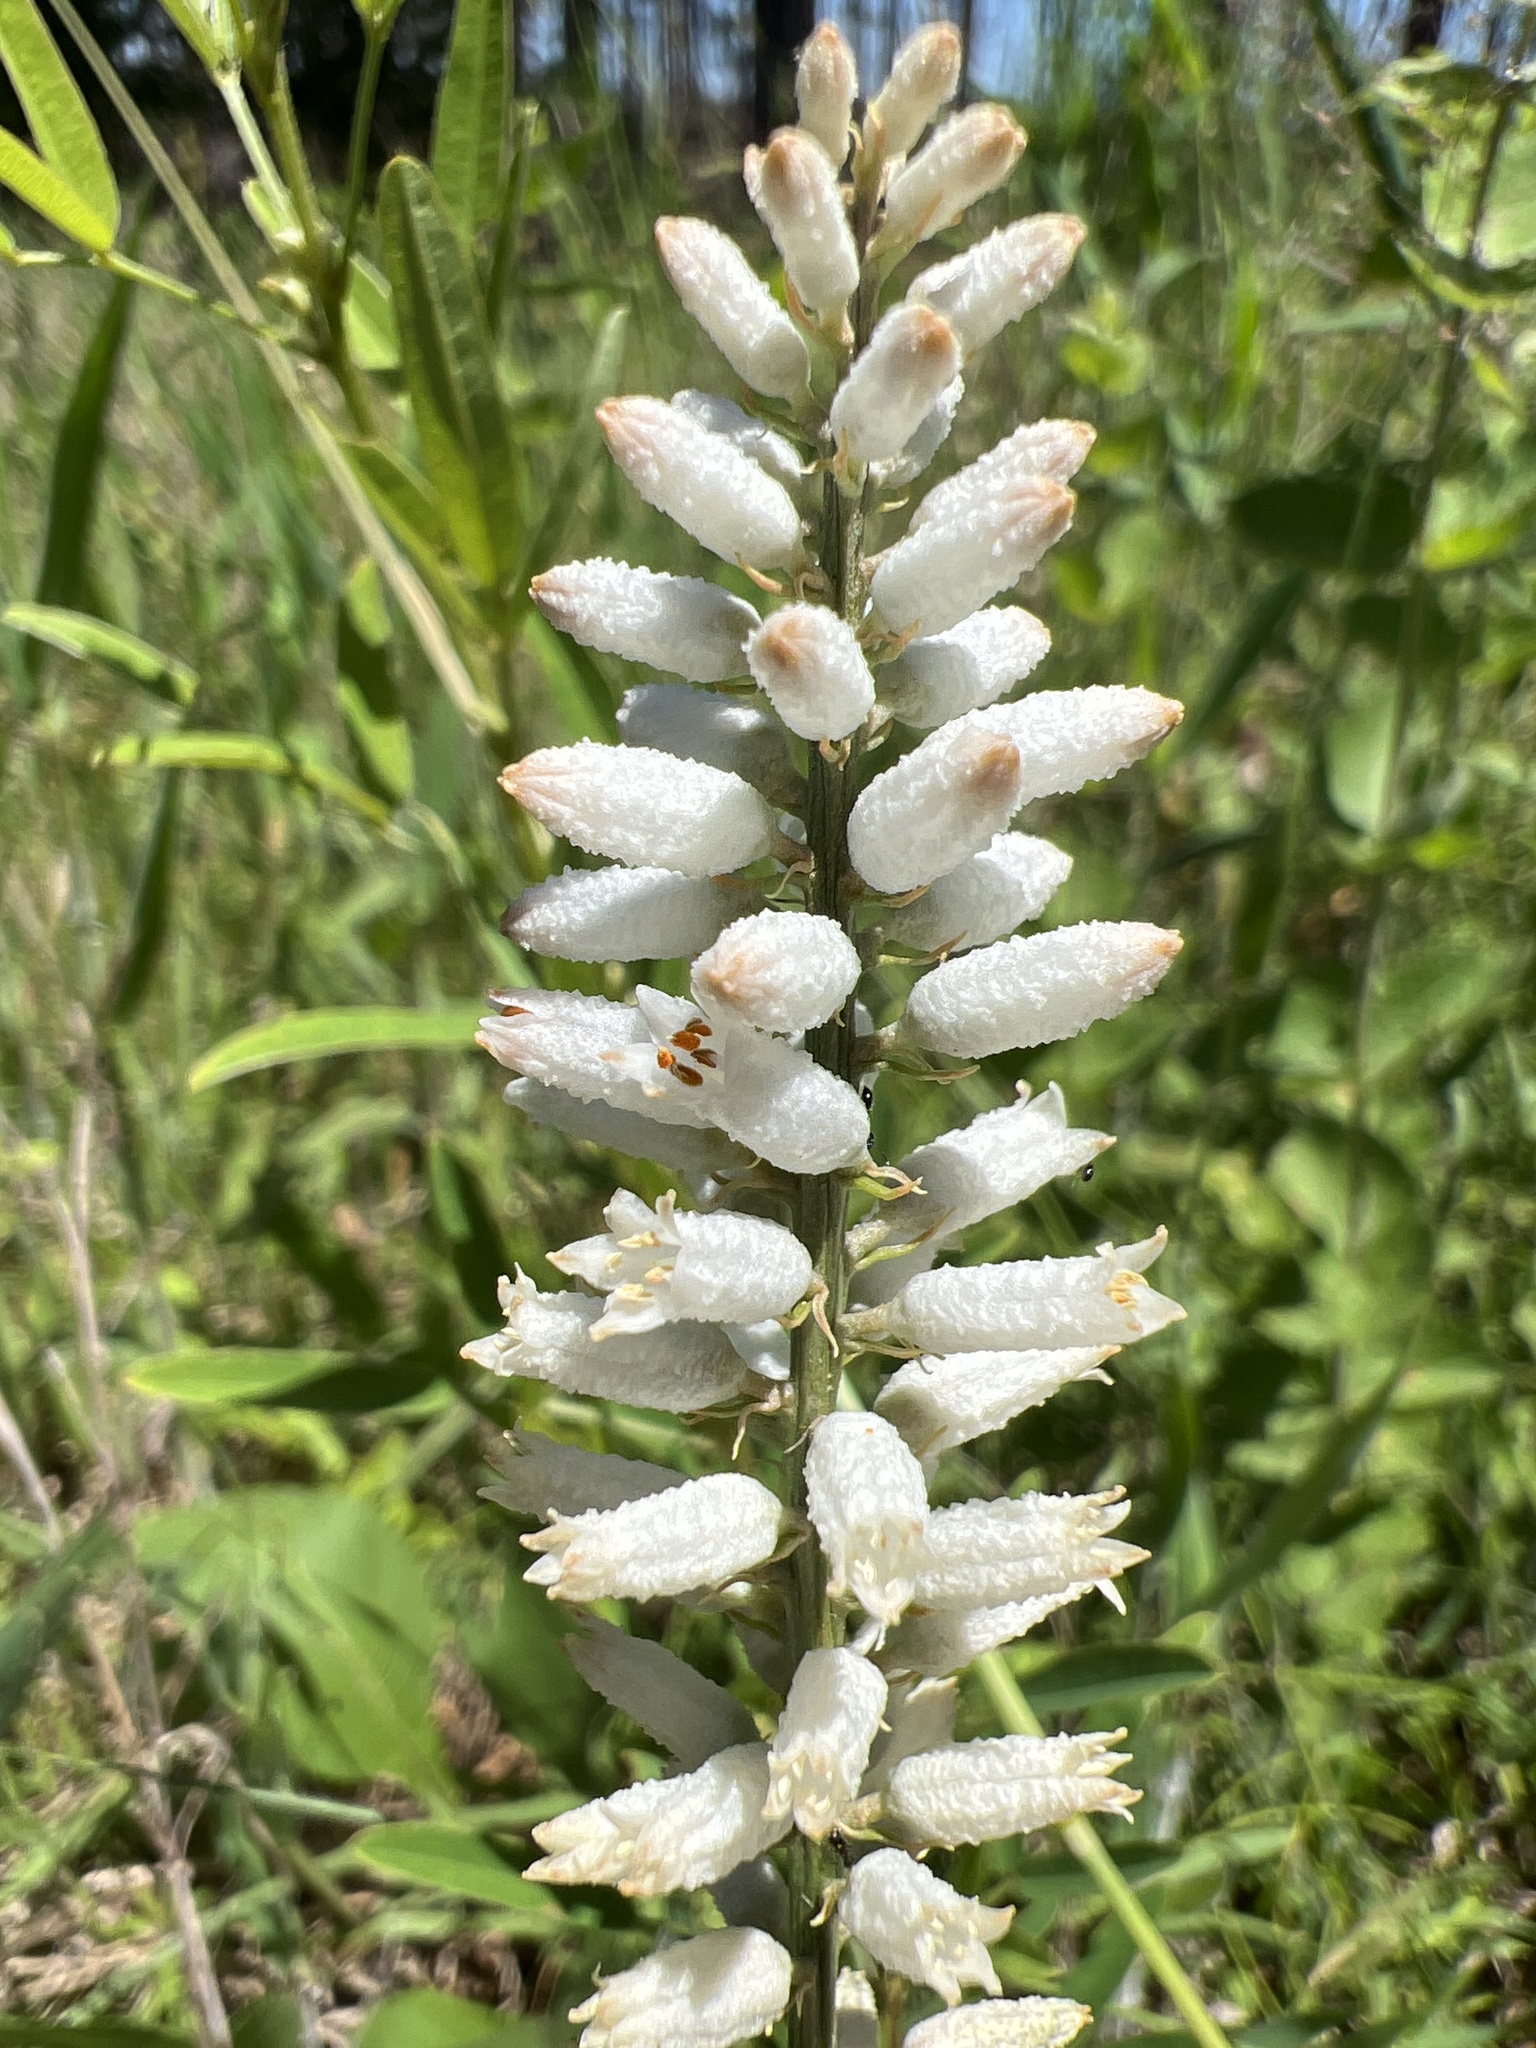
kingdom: Plantae
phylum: Tracheophyta
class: Liliopsida
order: Dioscoreales
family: Nartheciaceae
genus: Aletris
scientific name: Aletris farinosa
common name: Colicroot
